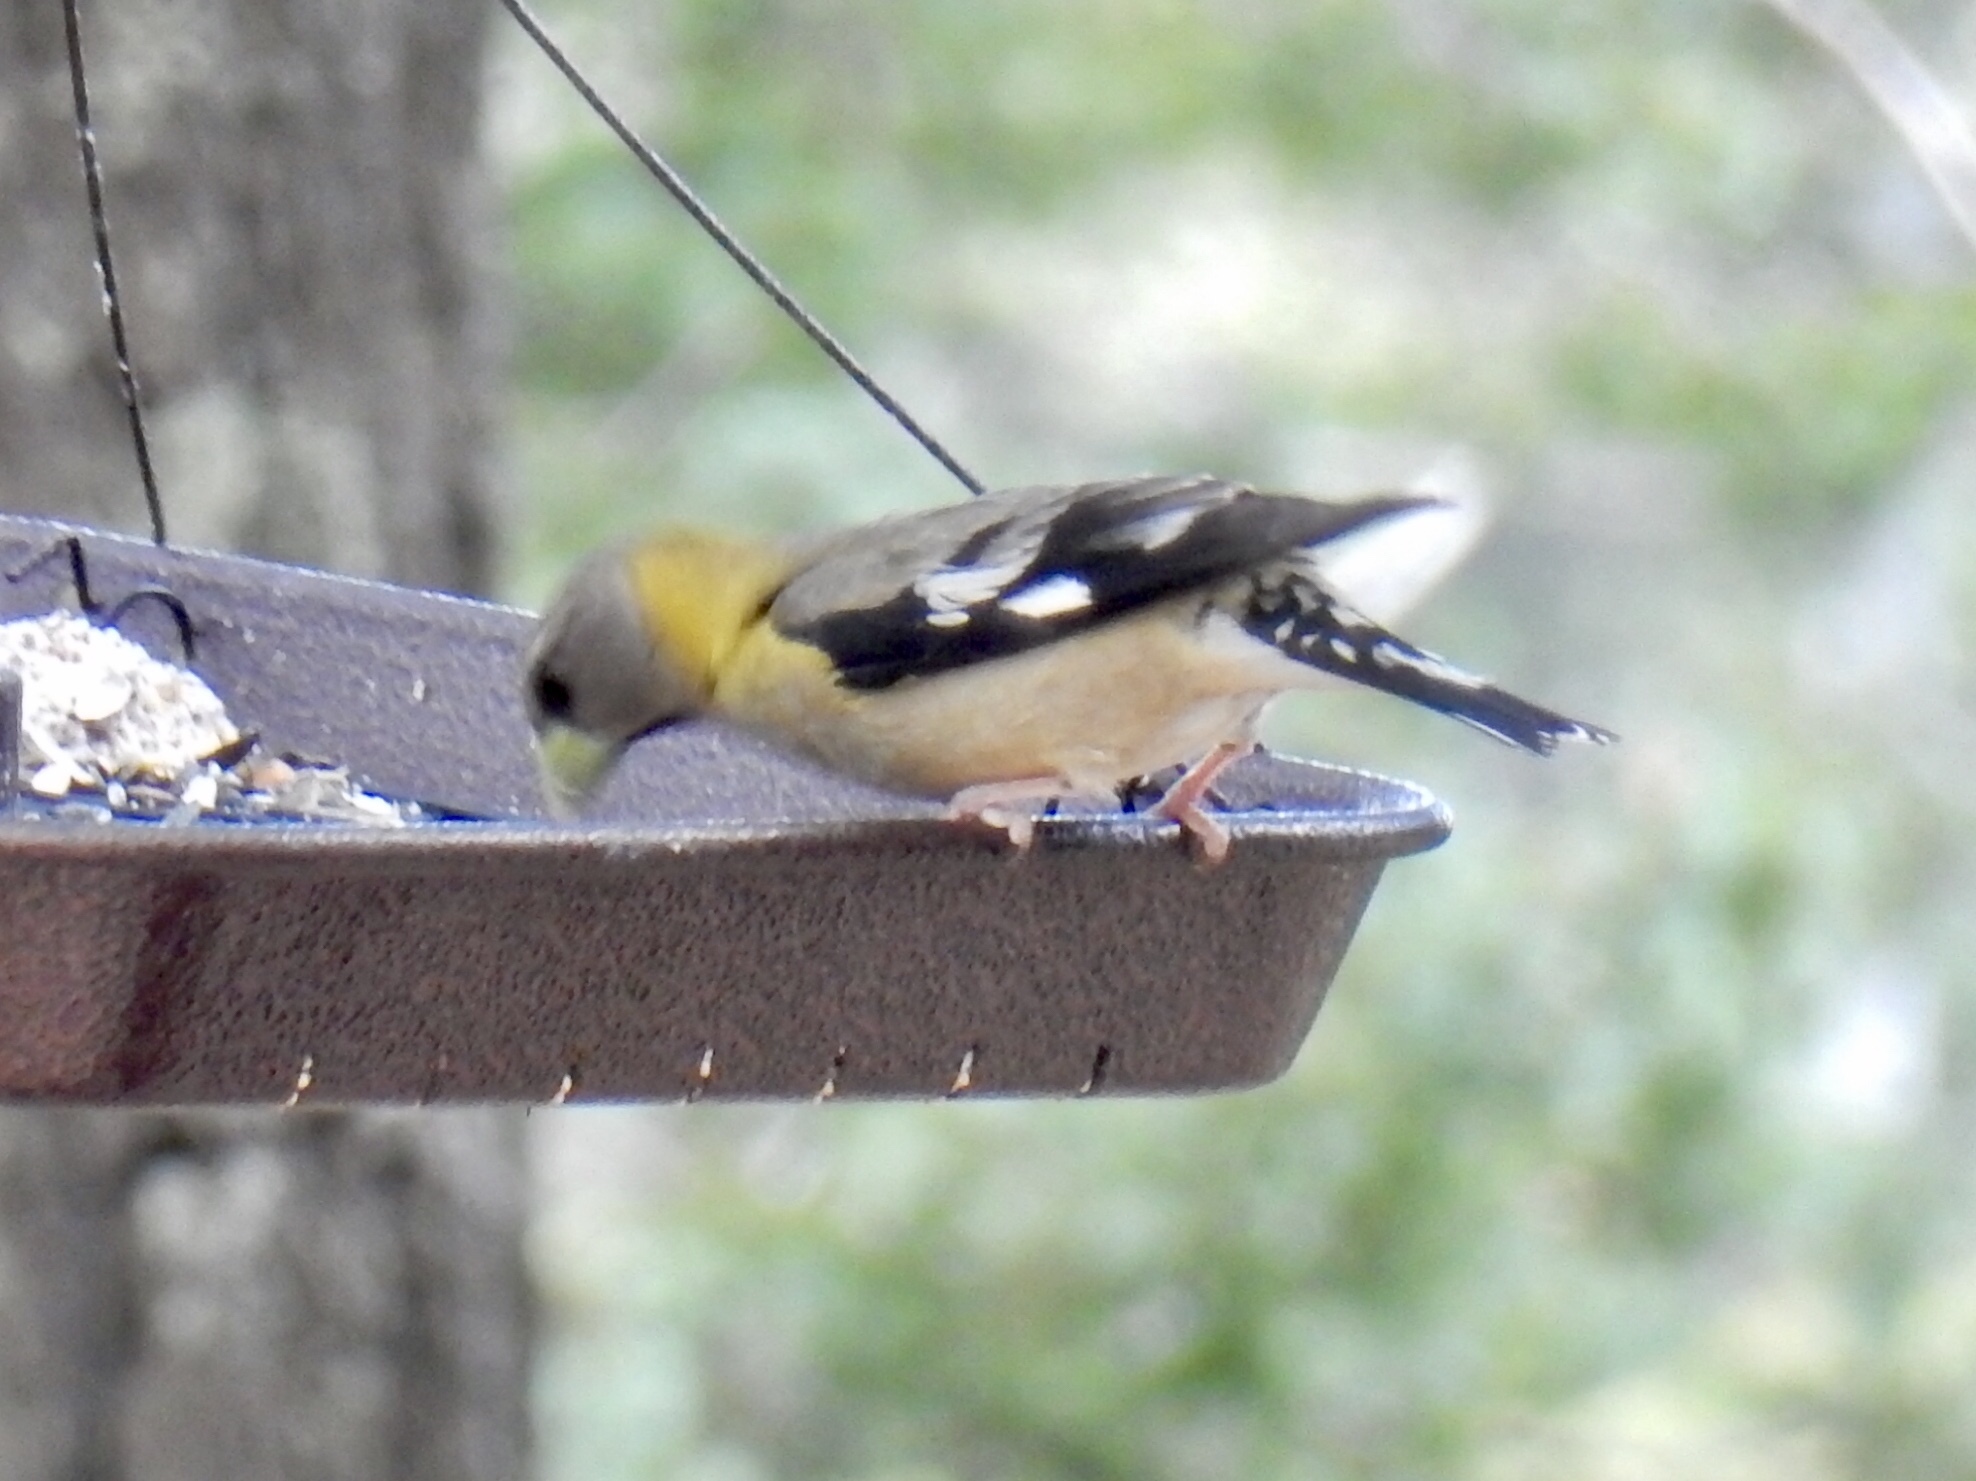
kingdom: Animalia
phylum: Chordata
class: Aves
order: Passeriformes
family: Fringillidae
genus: Hesperiphona
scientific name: Hesperiphona vespertina
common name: Evening grosbeak
